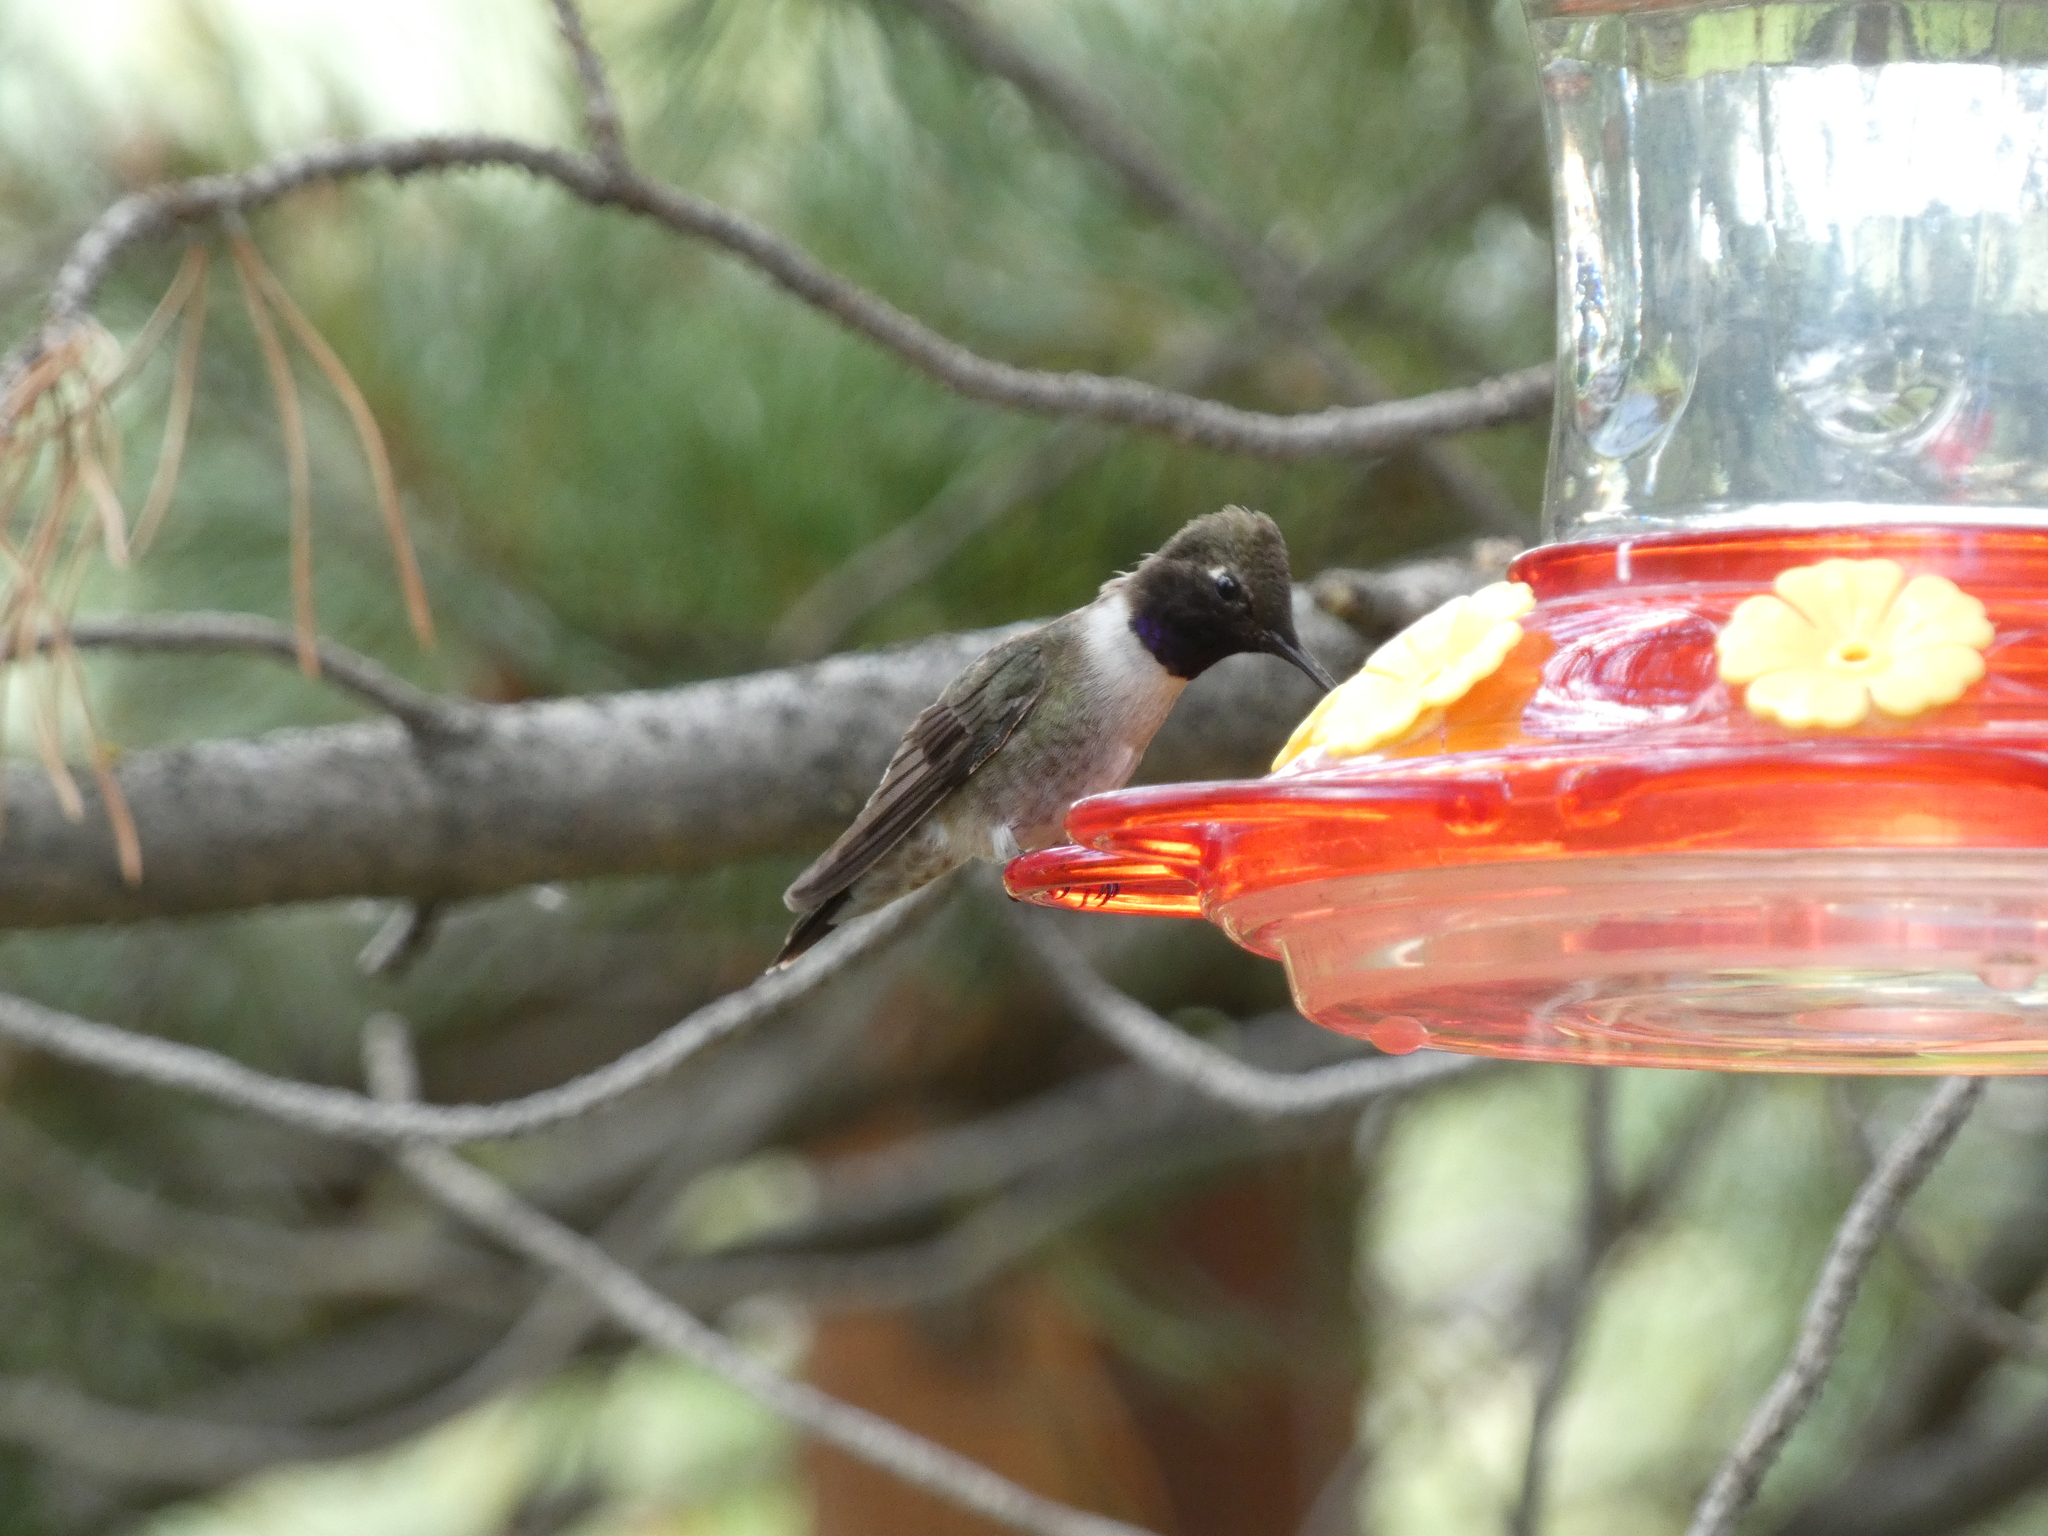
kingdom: Animalia
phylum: Chordata
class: Aves
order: Apodiformes
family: Trochilidae
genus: Archilochus
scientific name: Archilochus alexandri
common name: Black-chinned hummingbird
